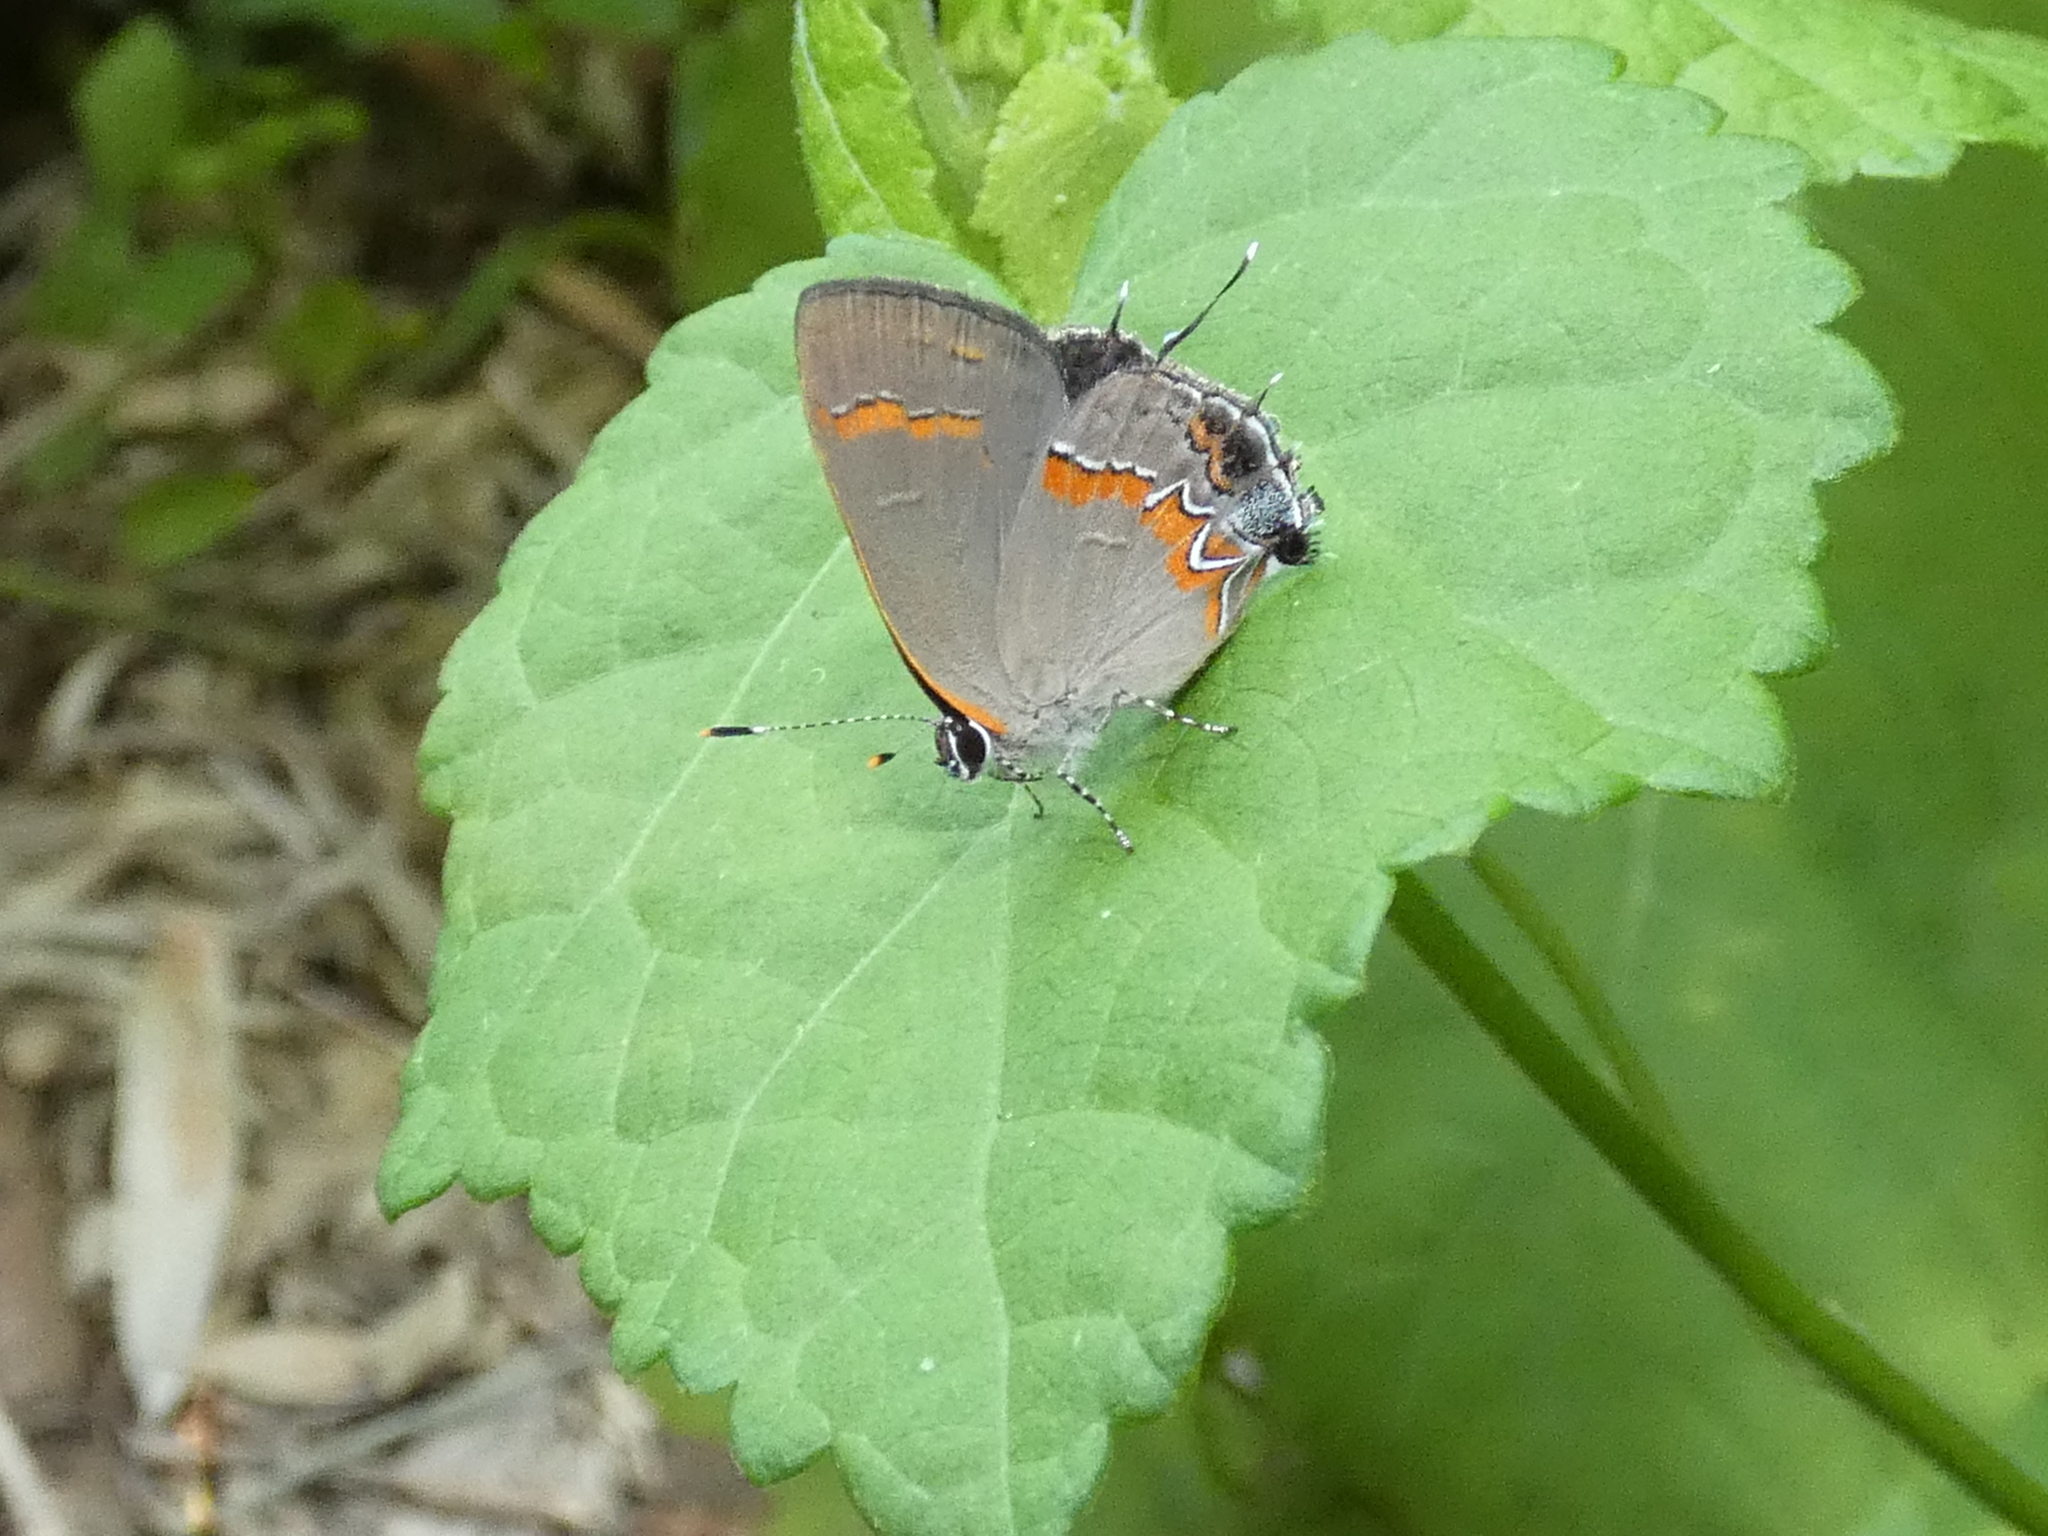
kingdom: Animalia
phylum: Arthropoda
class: Insecta
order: Lepidoptera
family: Lycaenidae
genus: Calycopis
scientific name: Calycopis cecrops
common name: Red-banded hairstreak
